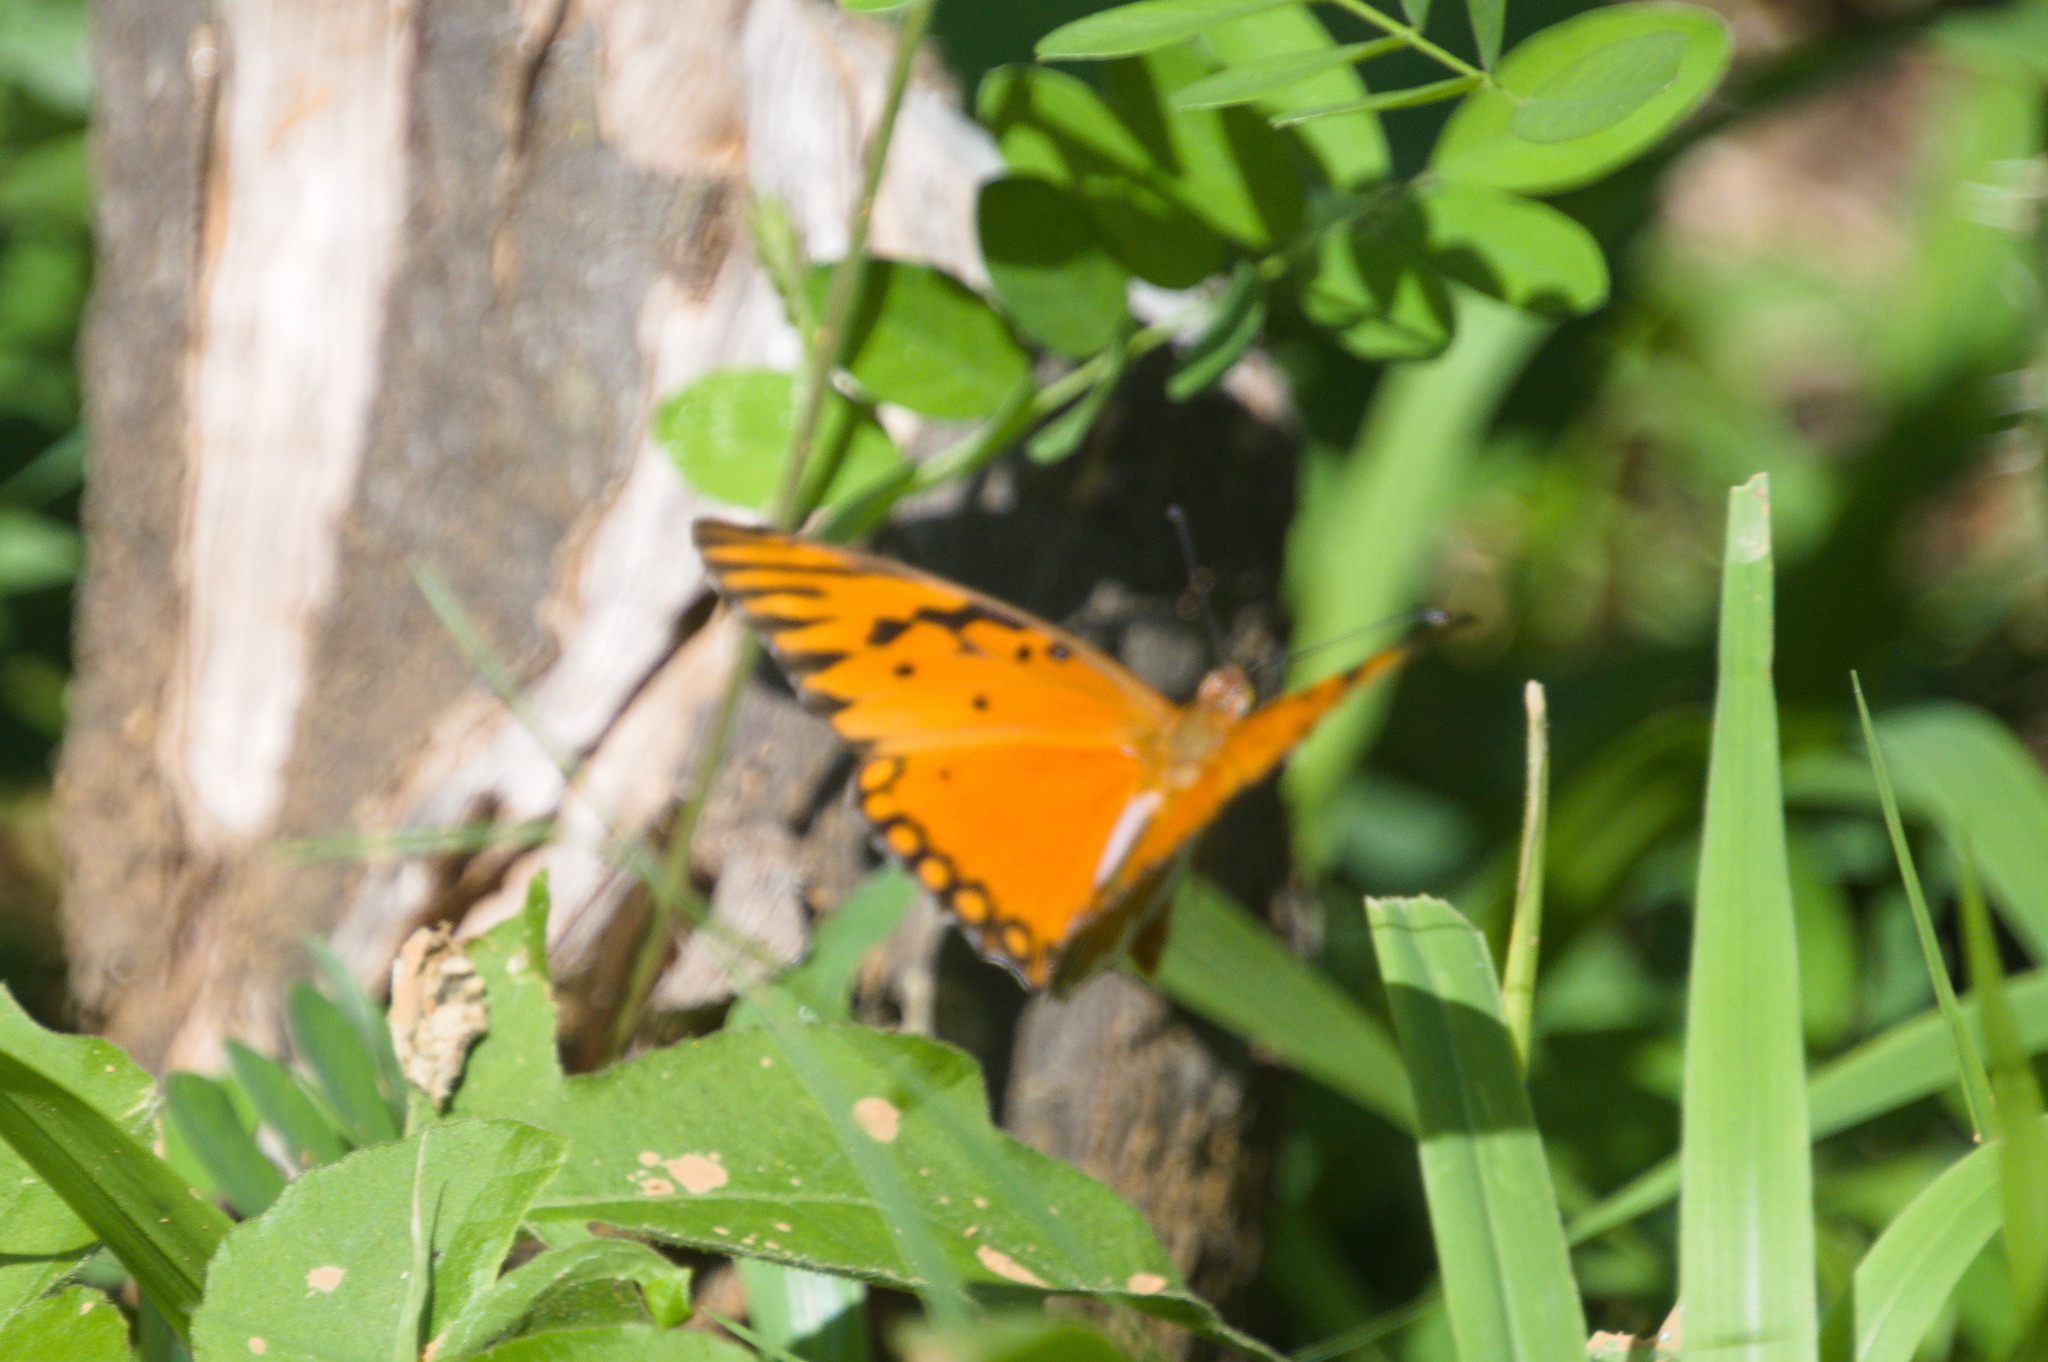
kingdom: Animalia
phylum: Arthropoda
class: Insecta
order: Lepidoptera
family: Nymphalidae
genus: Dione
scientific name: Dione vanillae
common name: Gulf fritillary
